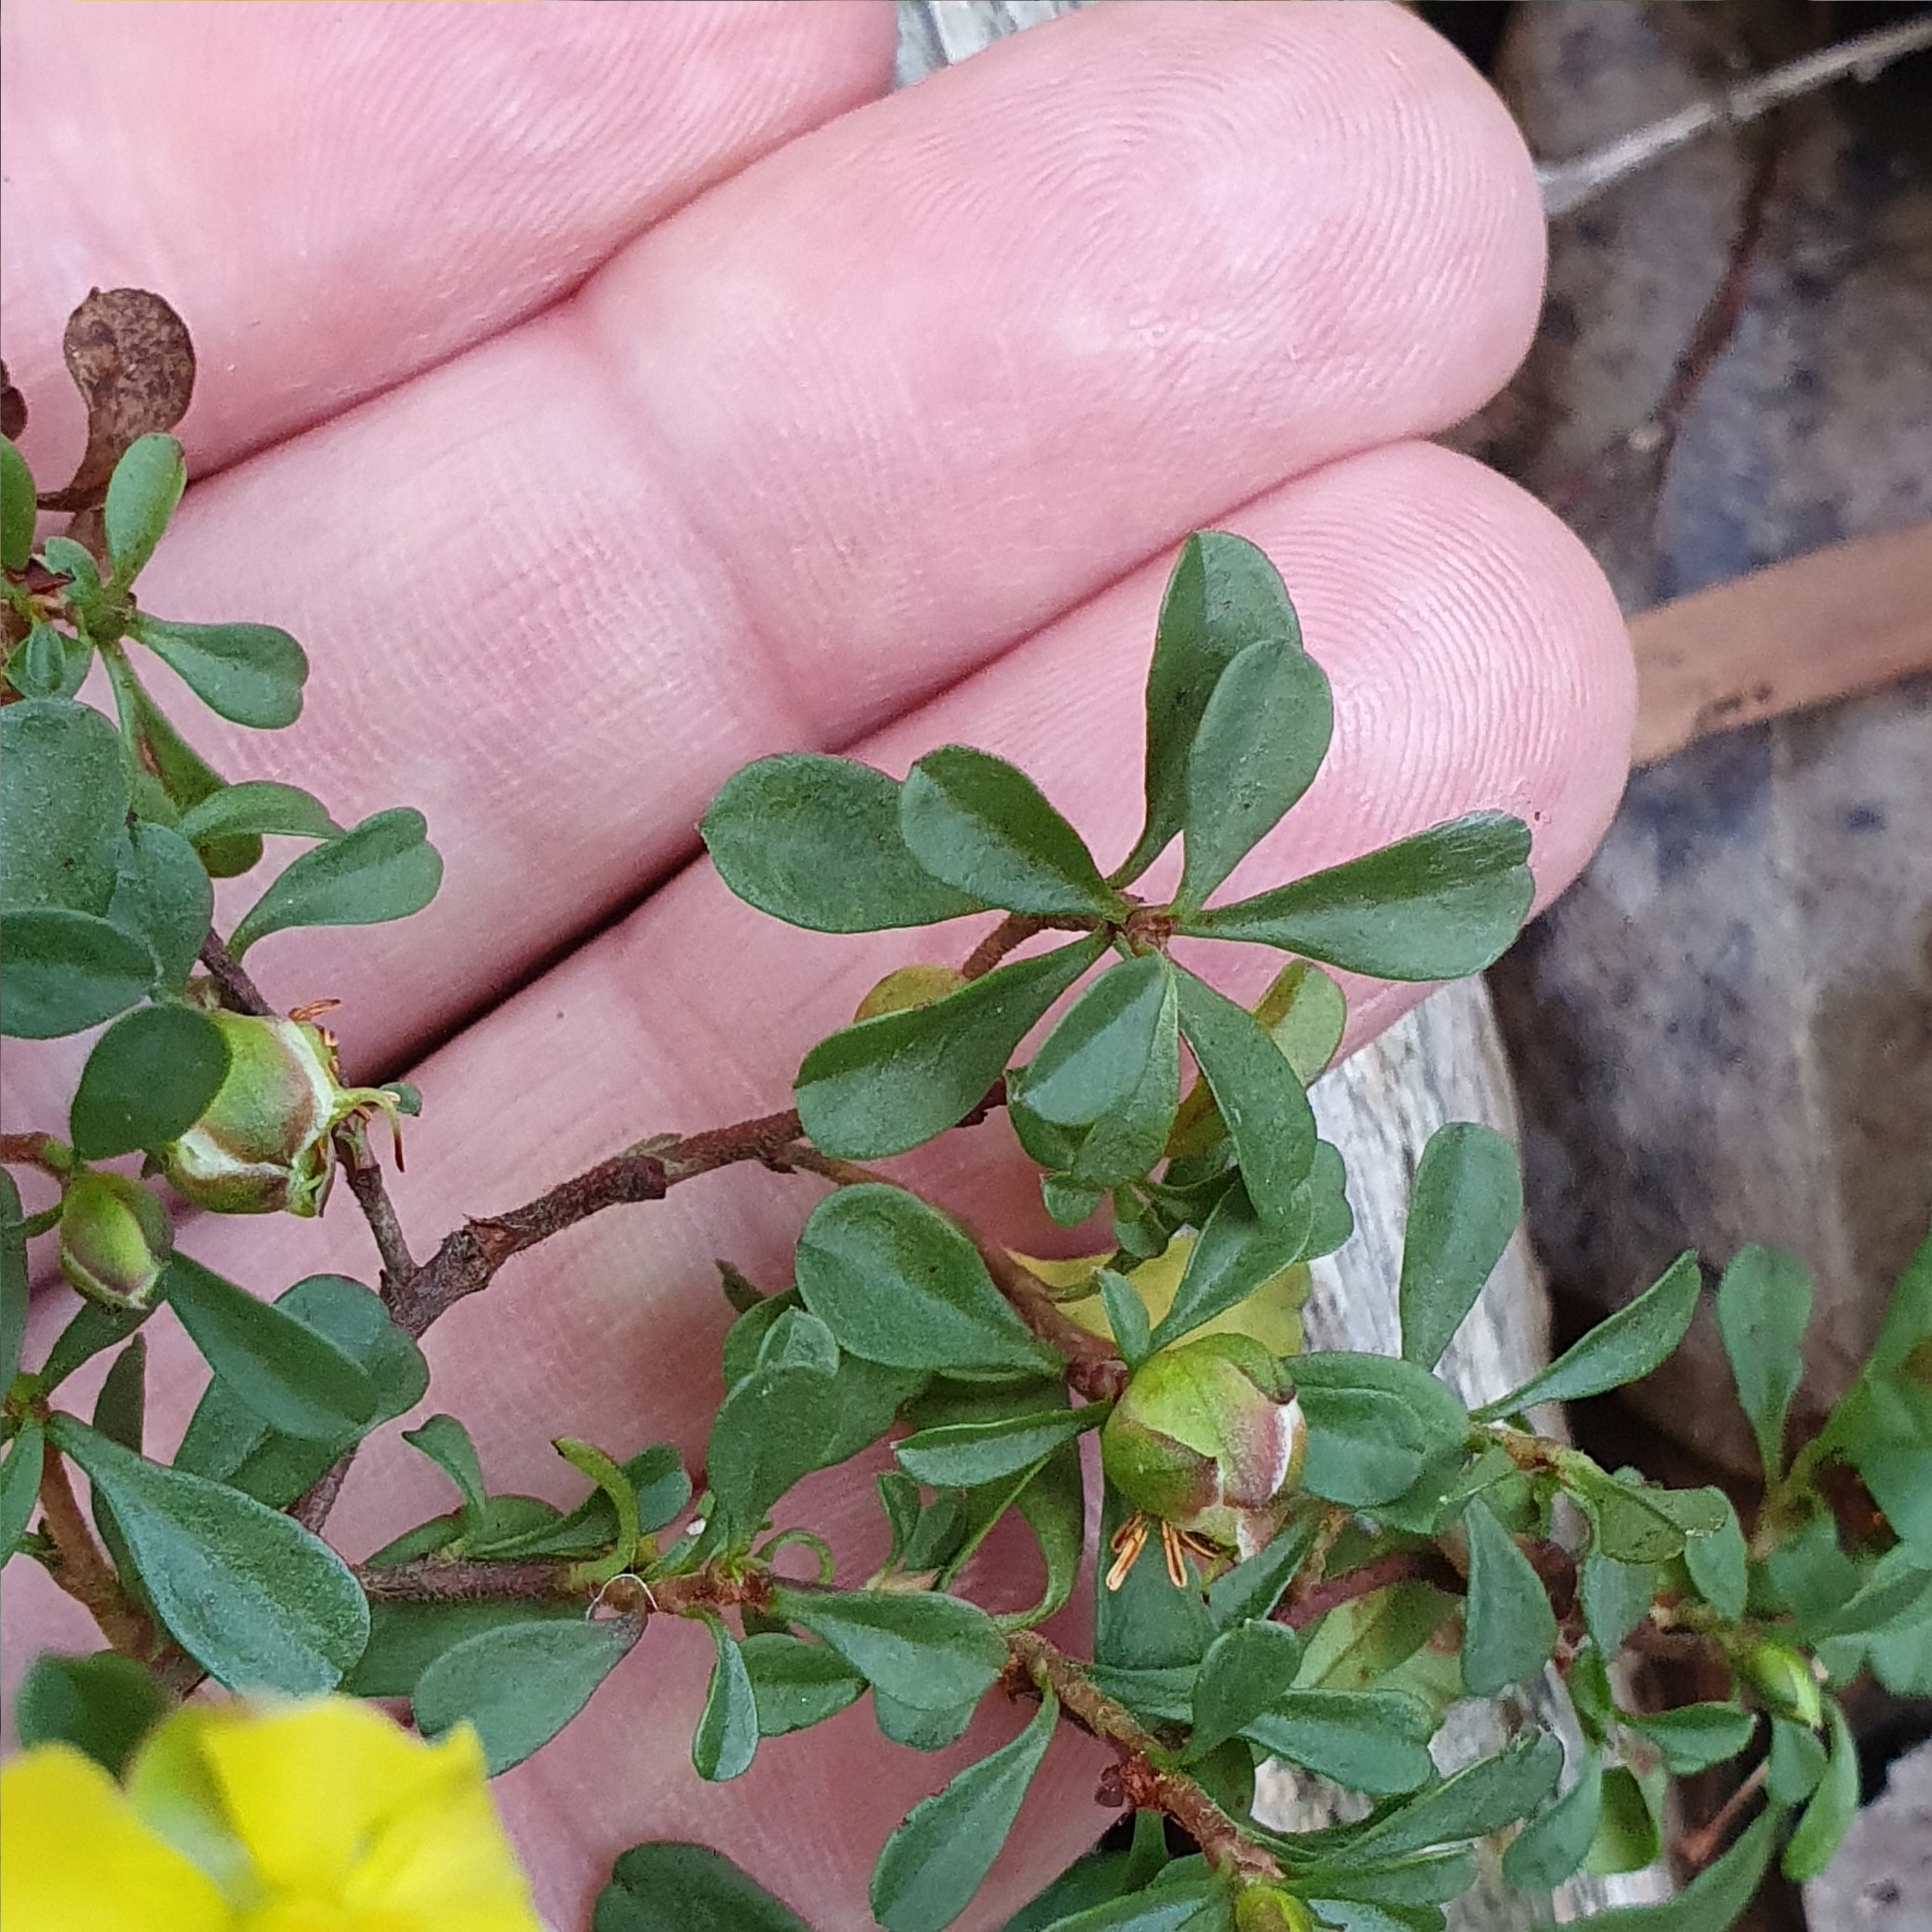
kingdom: Plantae
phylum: Tracheophyta
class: Magnoliopsida
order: Dilleniales
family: Dilleniaceae
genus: Hibbertia
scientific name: Hibbertia diffusa
